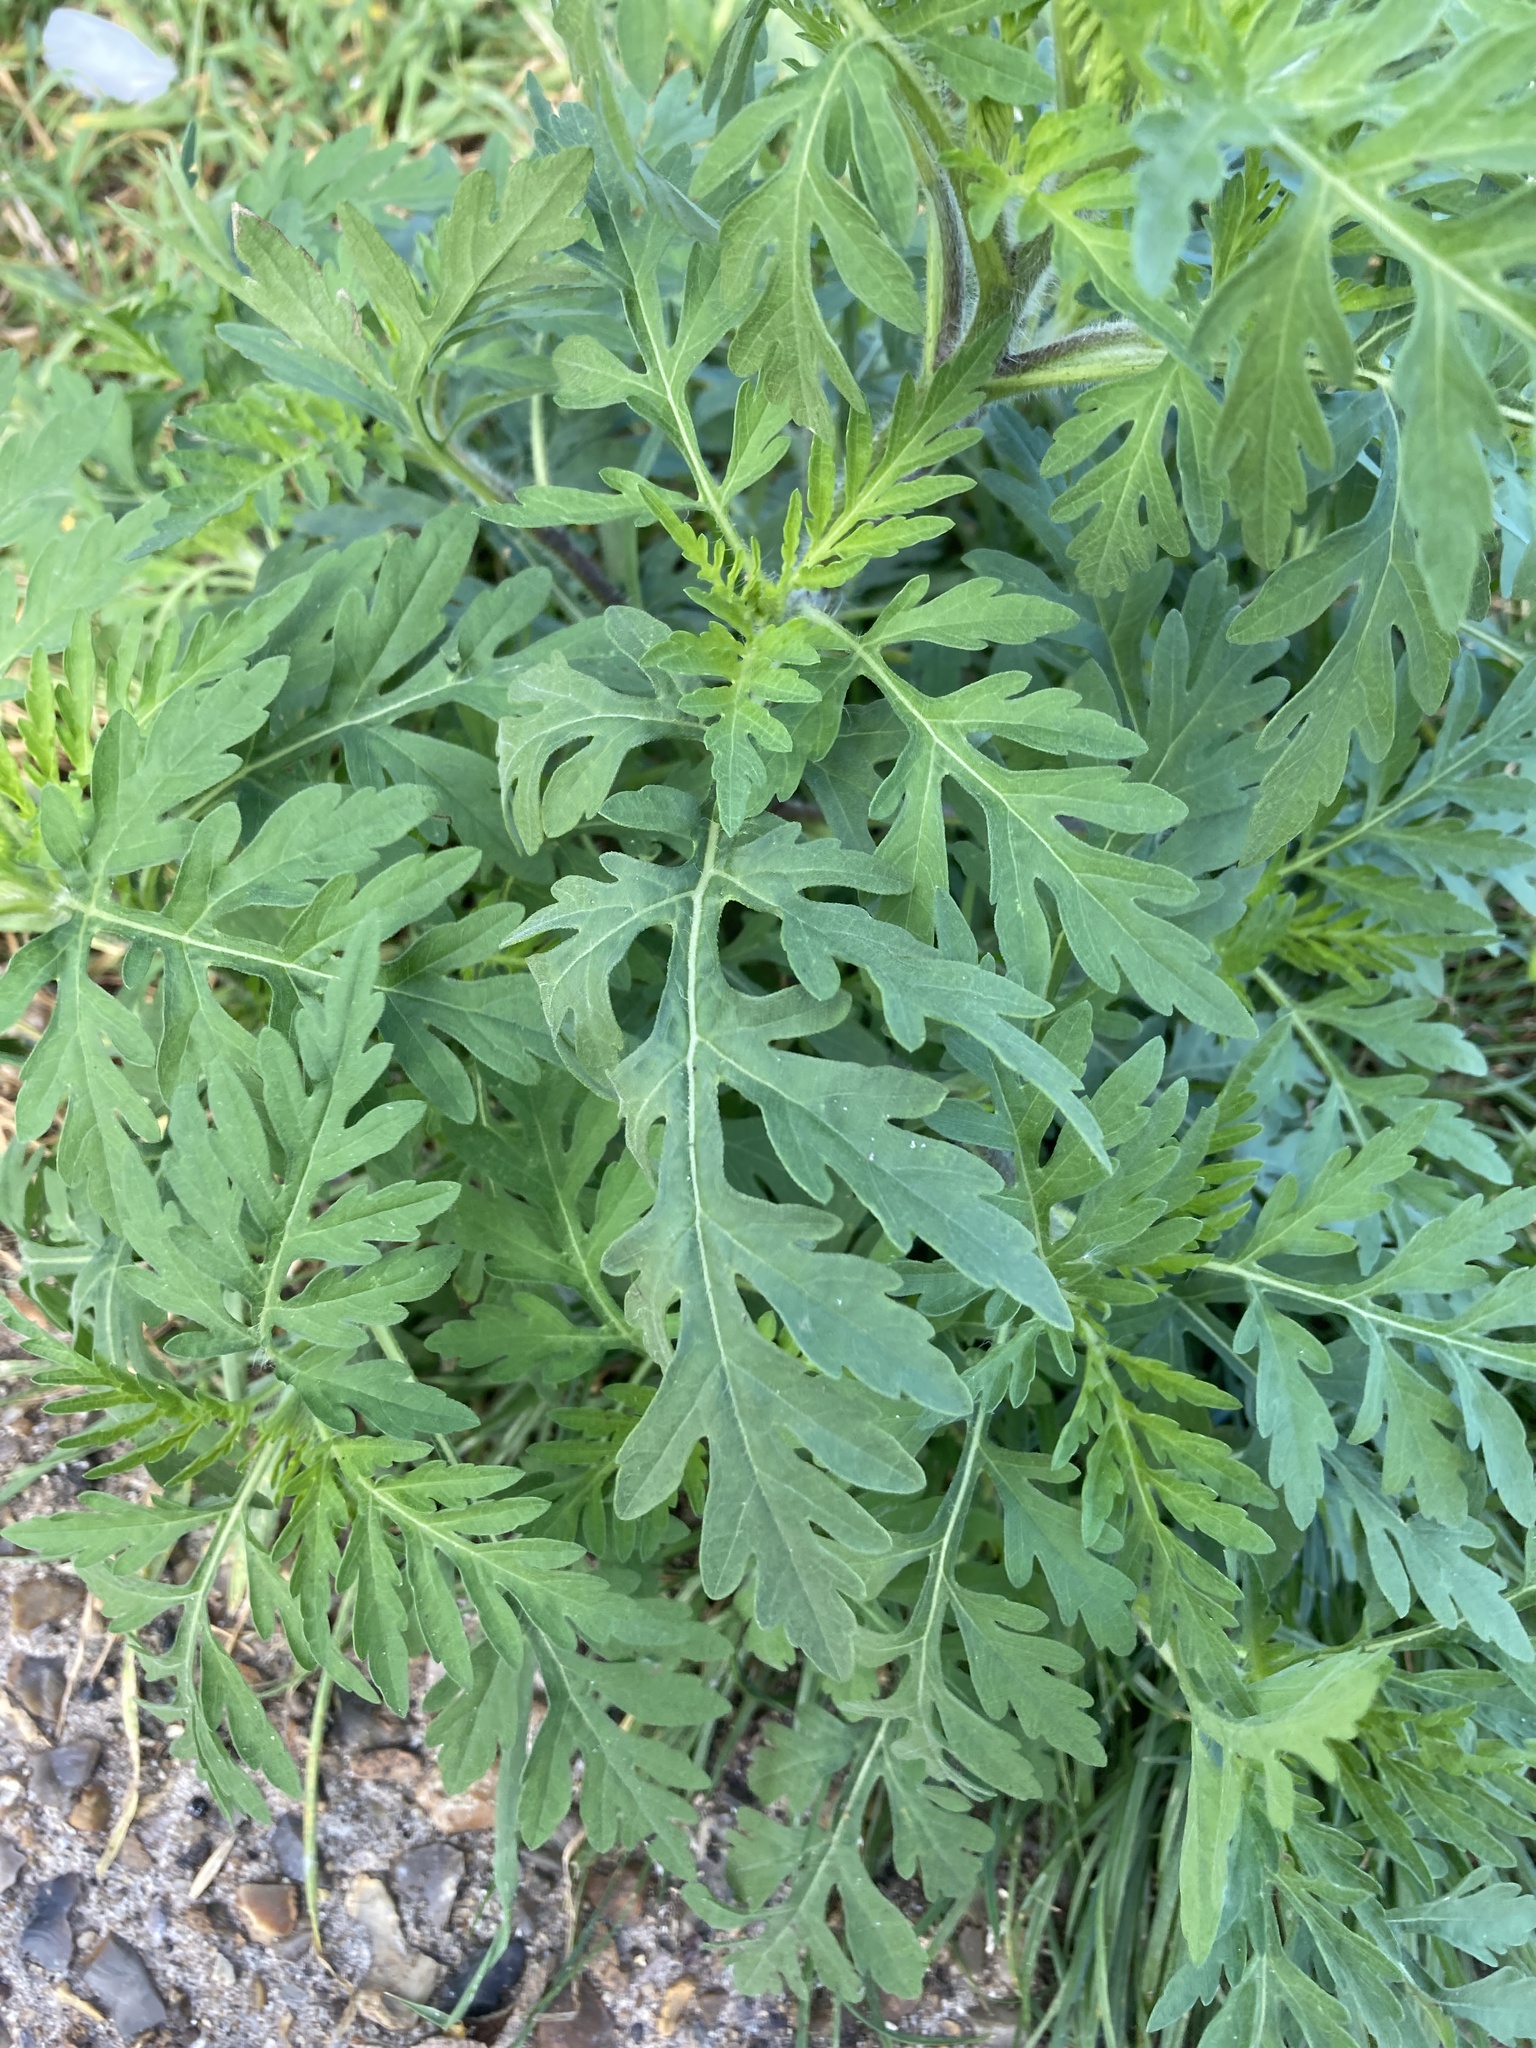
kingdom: Plantae
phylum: Tracheophyta
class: Magnoliopsida
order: Asterales
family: Asteraceae
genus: Ambrosia
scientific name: Ambrosia artemisiifolia
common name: Annual ragweed
